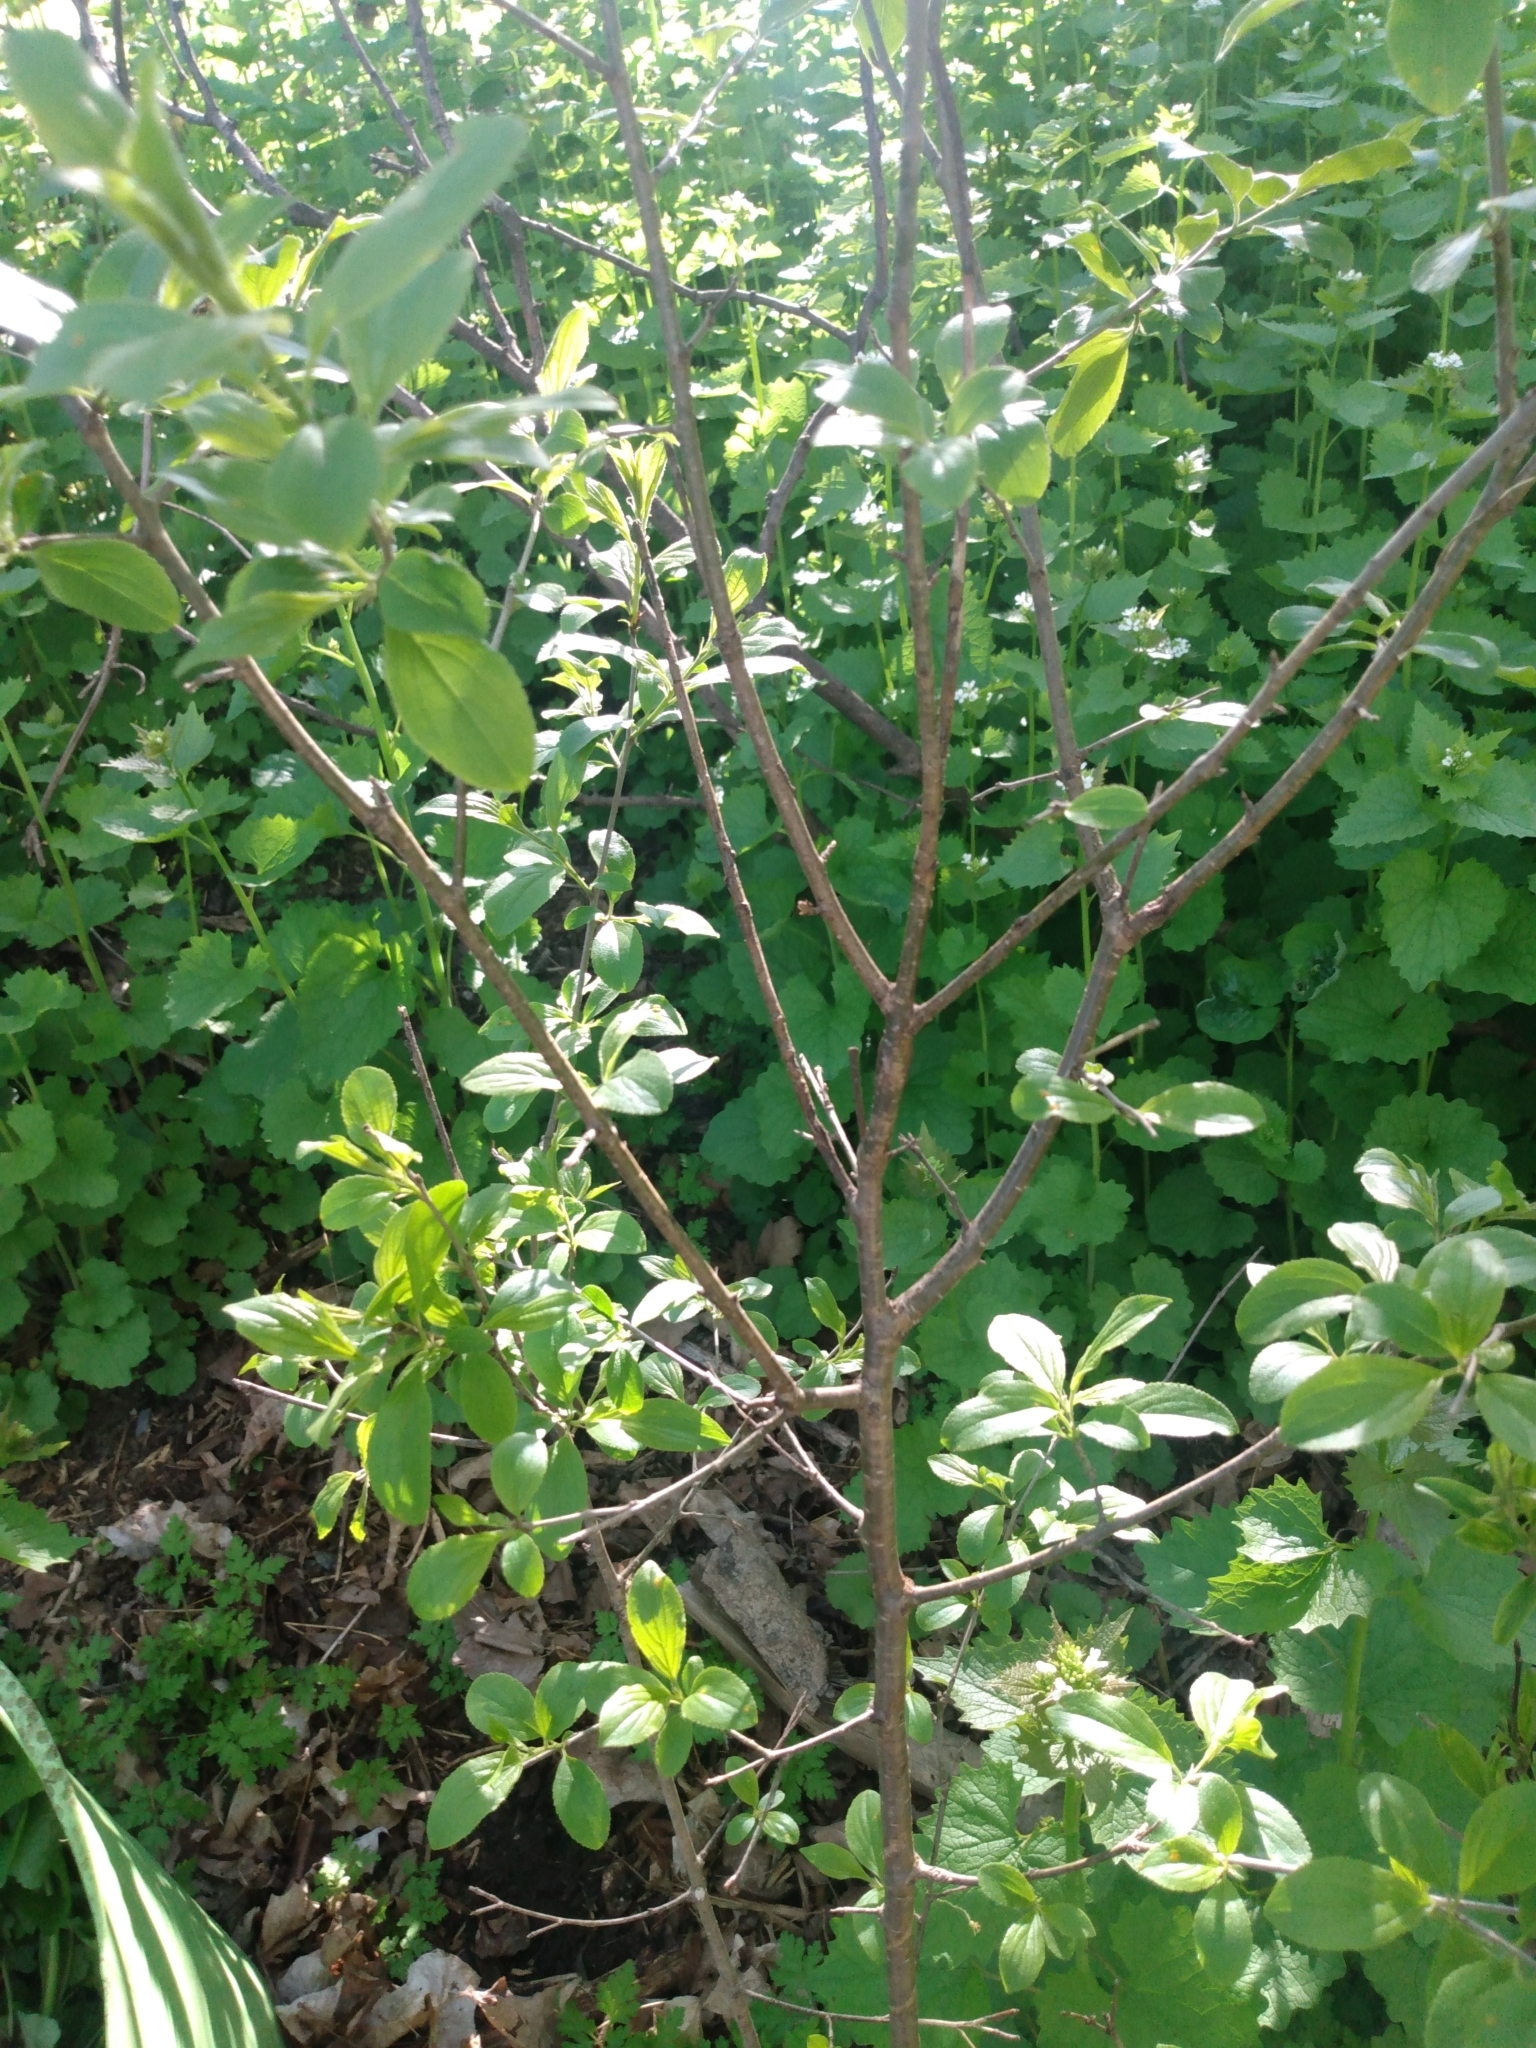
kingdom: Plantae
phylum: Tracheophyta
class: Magnoliopsida
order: Rosales
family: Rhamnaceae
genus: Rhamnus
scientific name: Rhamnus cathartica
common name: Common buckthorn
